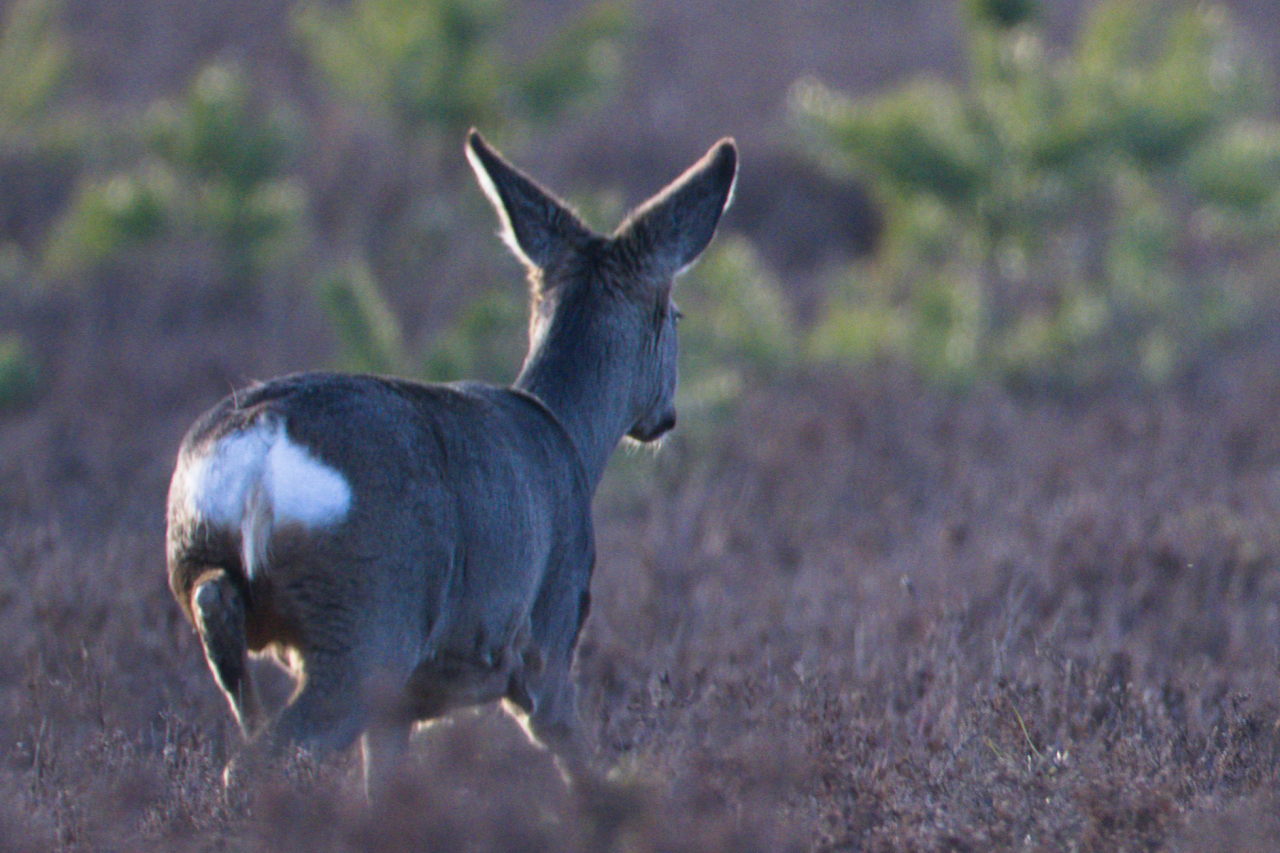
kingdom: Animalia
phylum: Chordata
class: Mammalia
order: Artiodactyla
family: Cervidae
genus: Capreolus
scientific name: Capreolus capreolus
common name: Western roe deer
